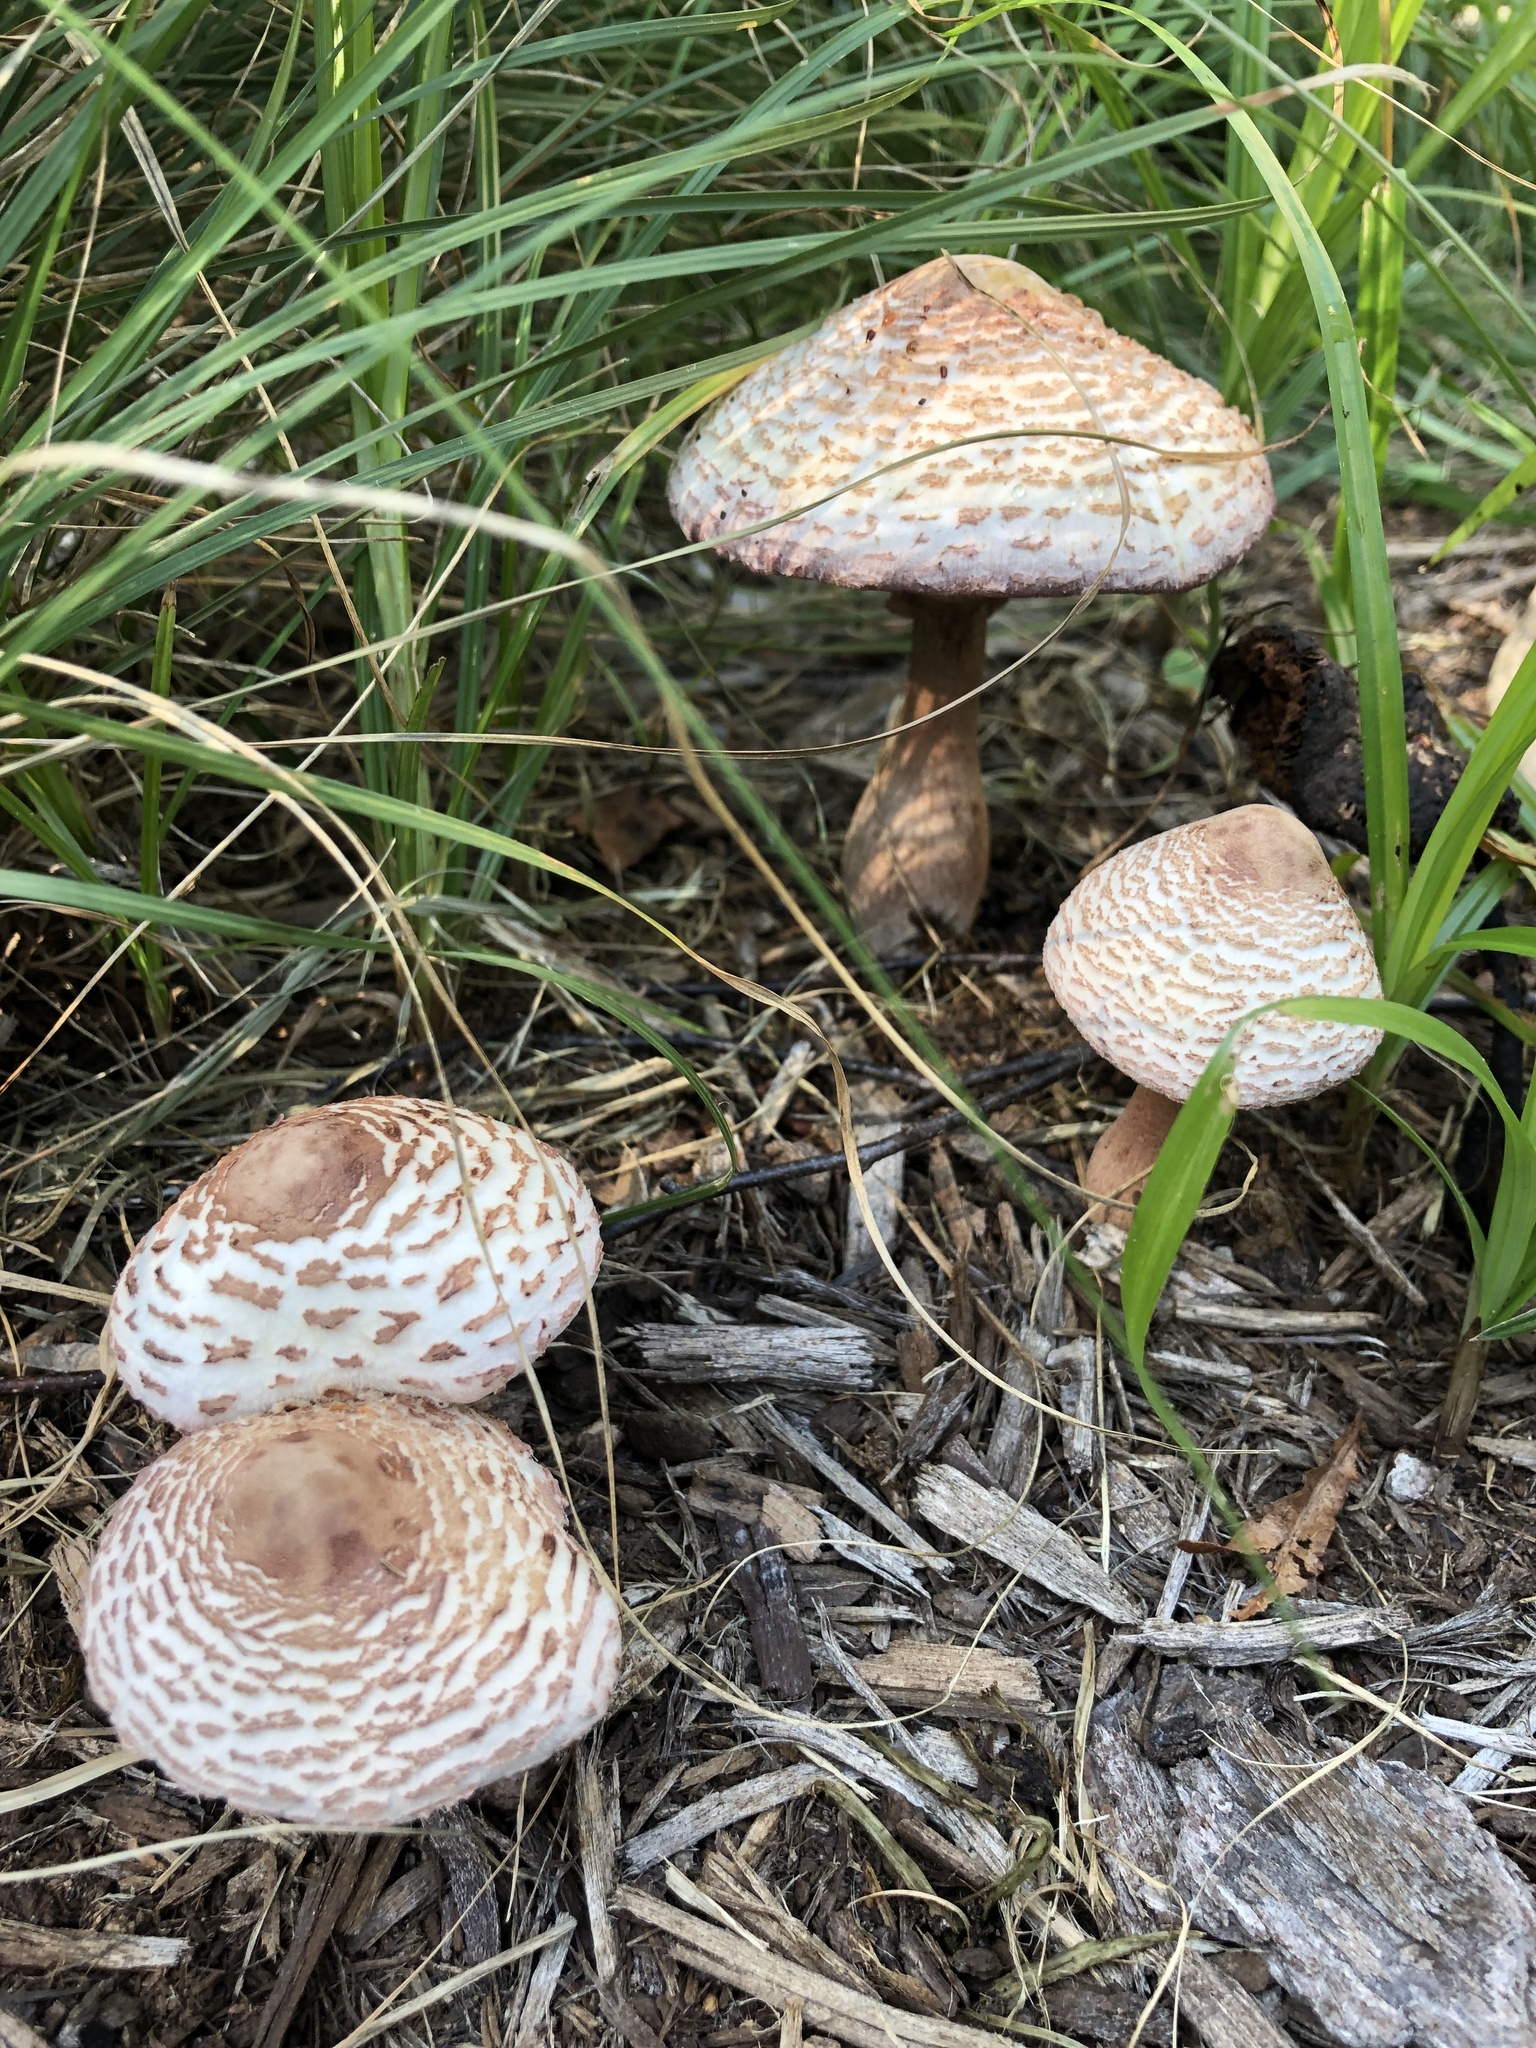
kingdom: Fungi
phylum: Basidiomycota
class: Agaricomycetes
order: Agaricales
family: Agaricaceae
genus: Leucoagaricus
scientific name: Leucoagaricus americanus
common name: Reddening lepiota
